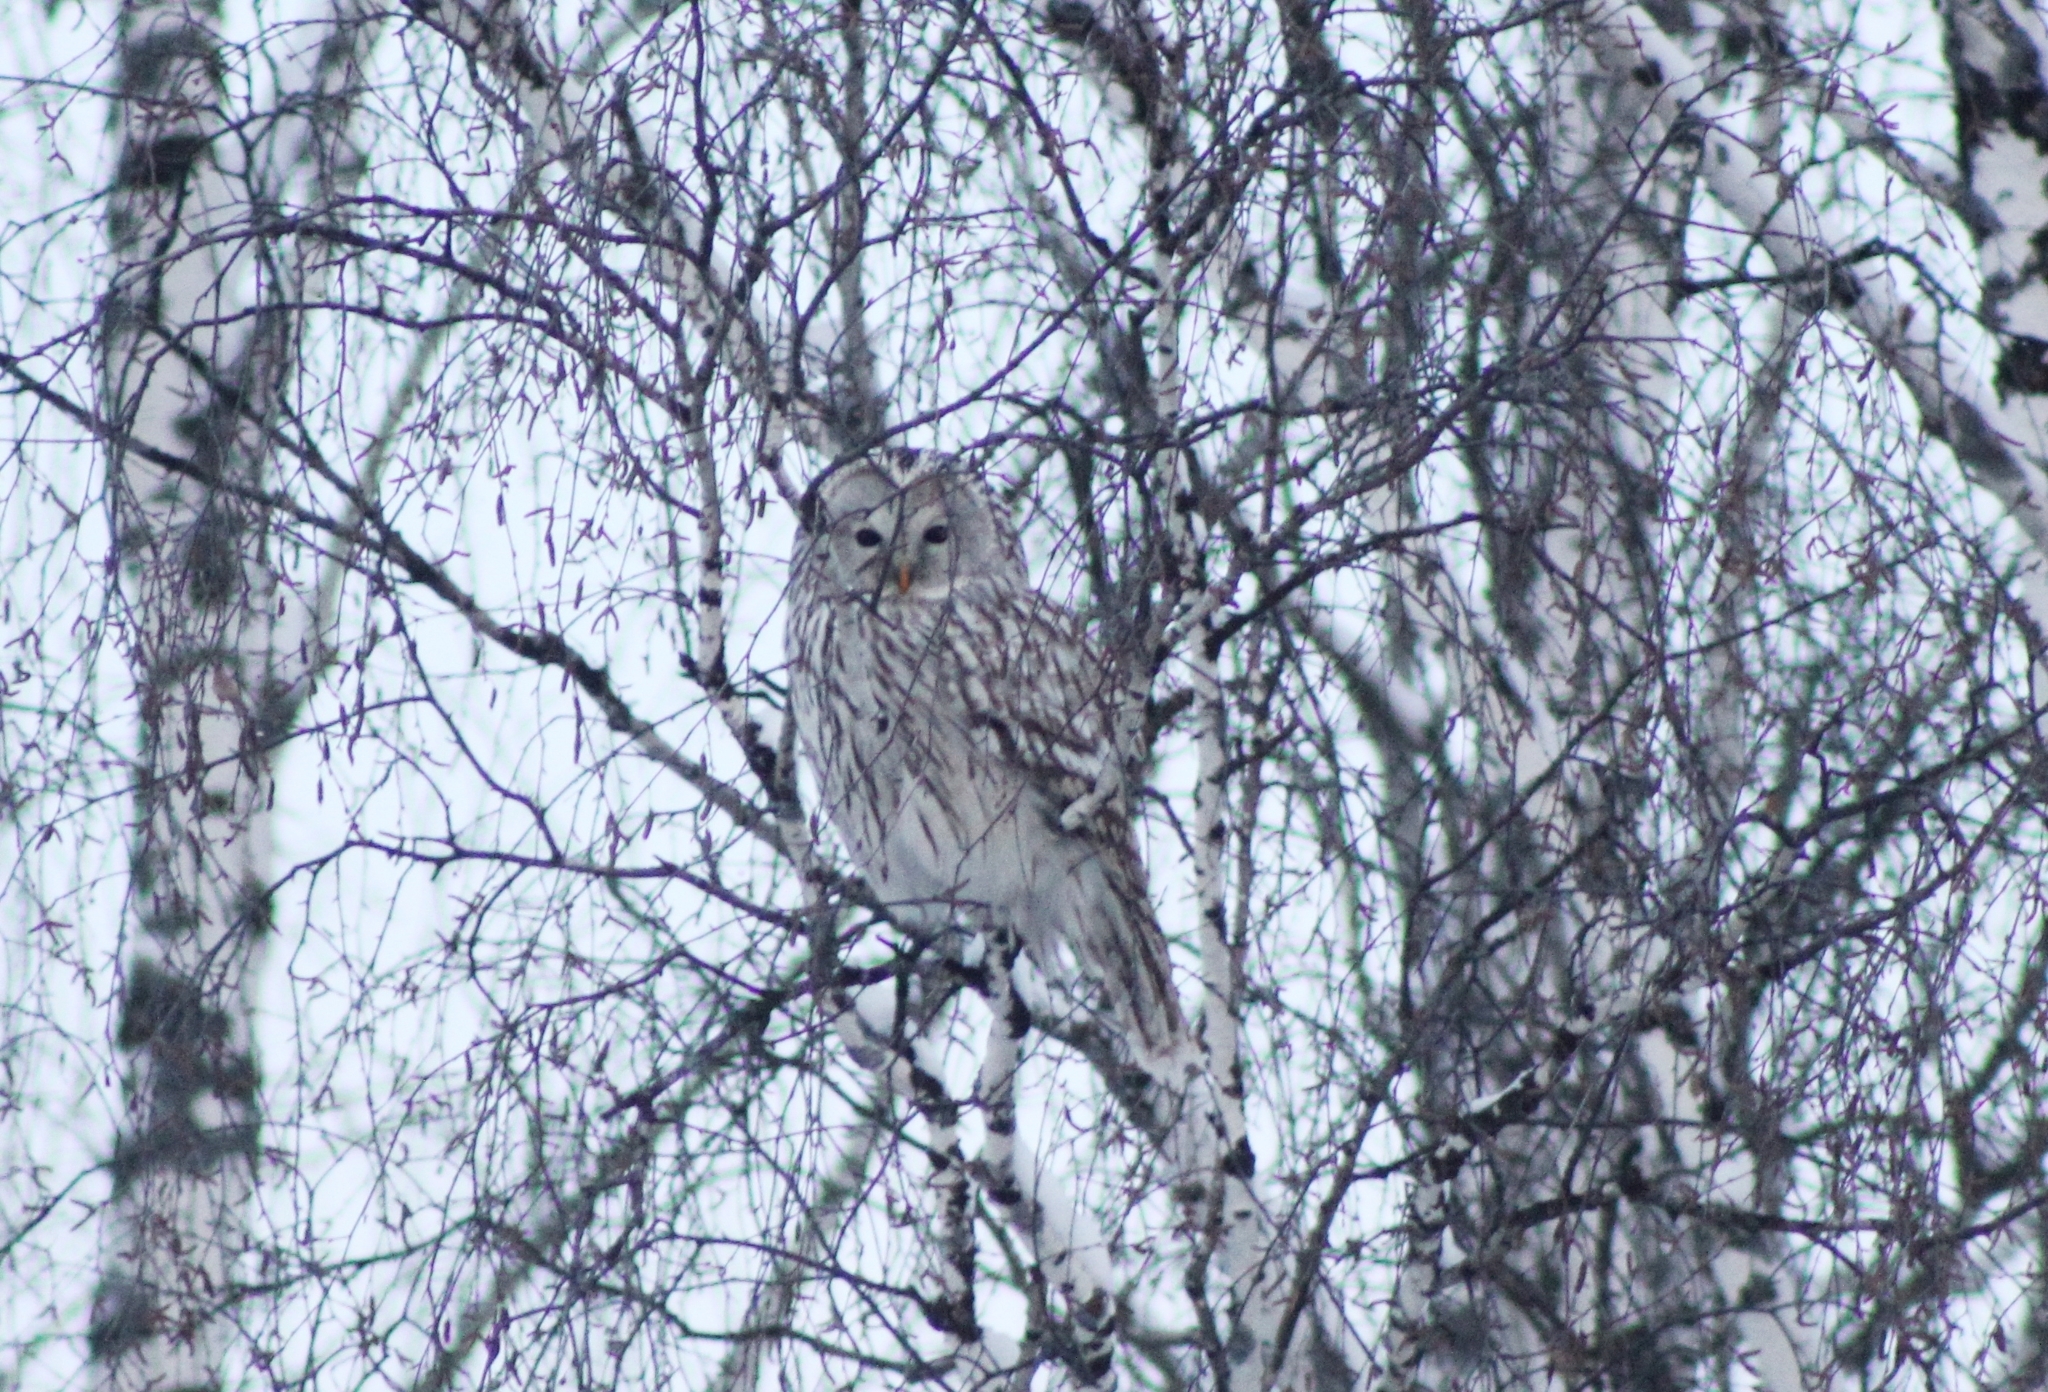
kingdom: Animalia
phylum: Chordata
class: Aves
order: Strigiformes
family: Strigidae
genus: Strix
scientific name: Strix uralensis
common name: Ural owl
